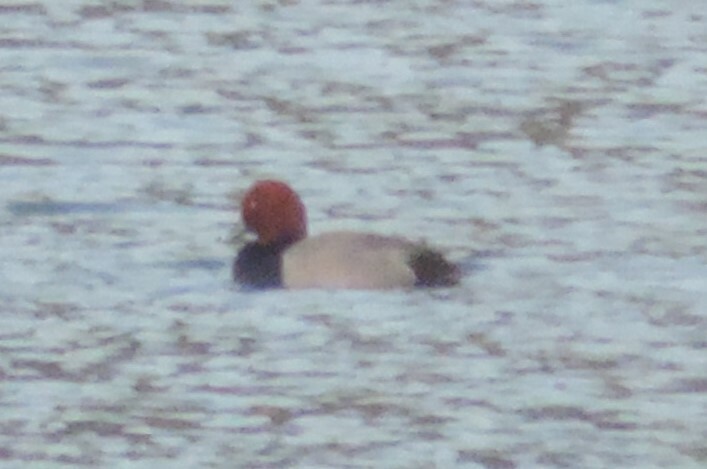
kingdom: Animalia
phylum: Chordata
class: Aves
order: Anseriformes
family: Anatidae
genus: Aythya
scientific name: Aythya americana
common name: Redhead
